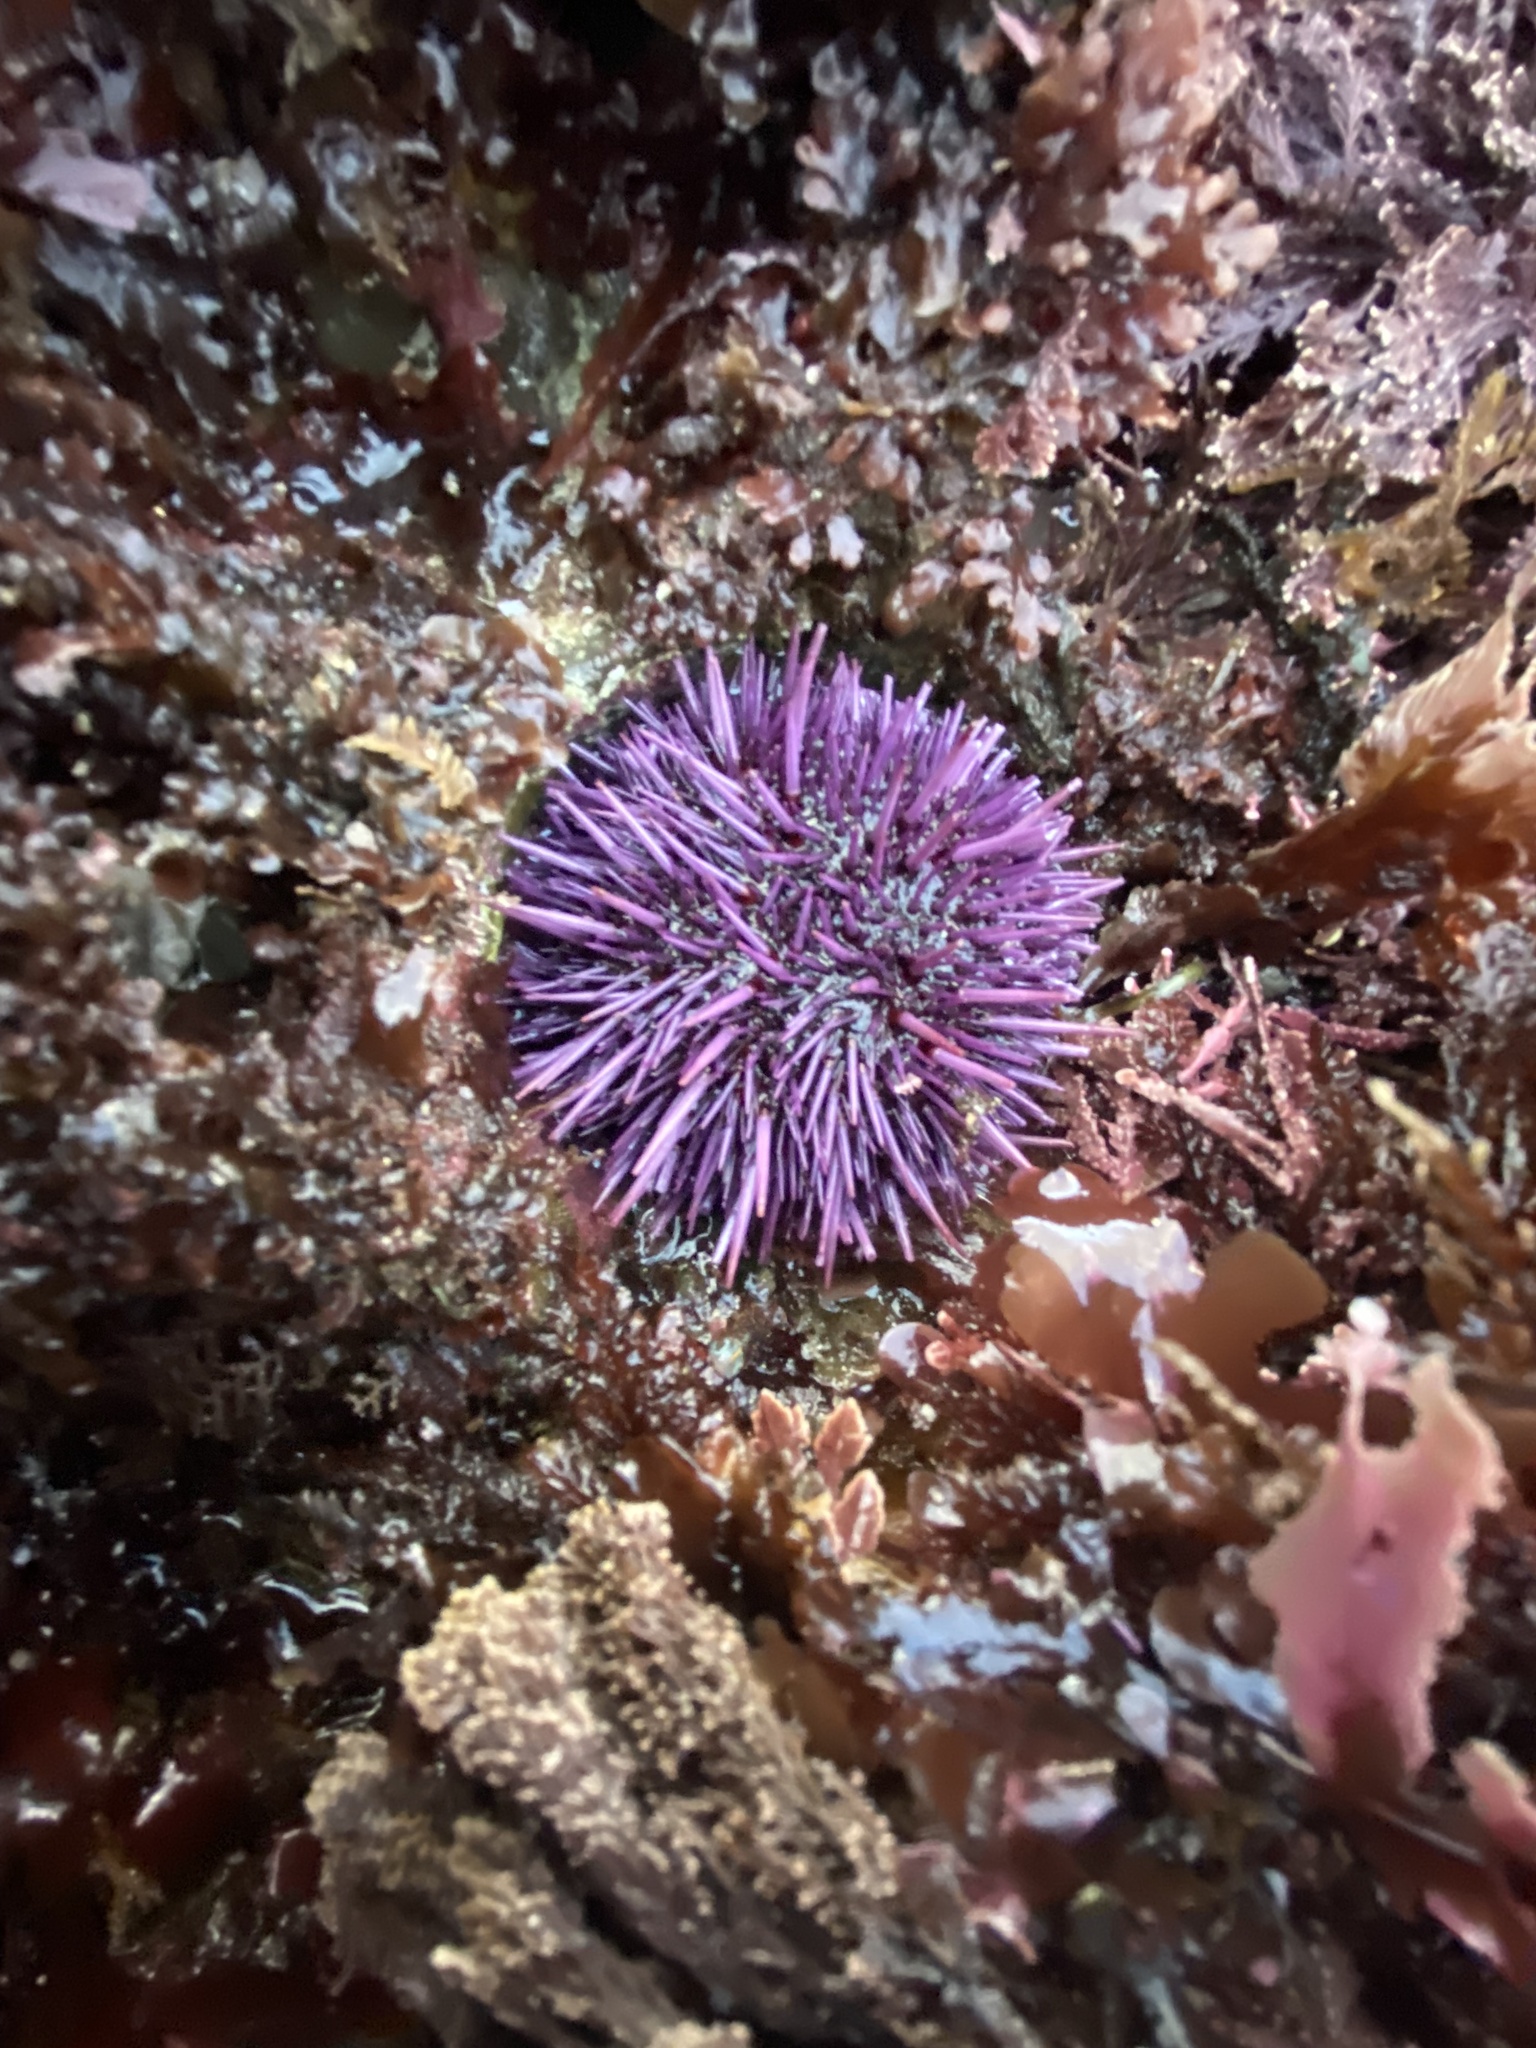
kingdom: Animalia
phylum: Echinodermata
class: Echinoidea
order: Camarodonta
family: Strongylocentrotidae
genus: Strongylocentrotus
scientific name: Strongylocentrotus purpuratus
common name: Purple sea urchin
